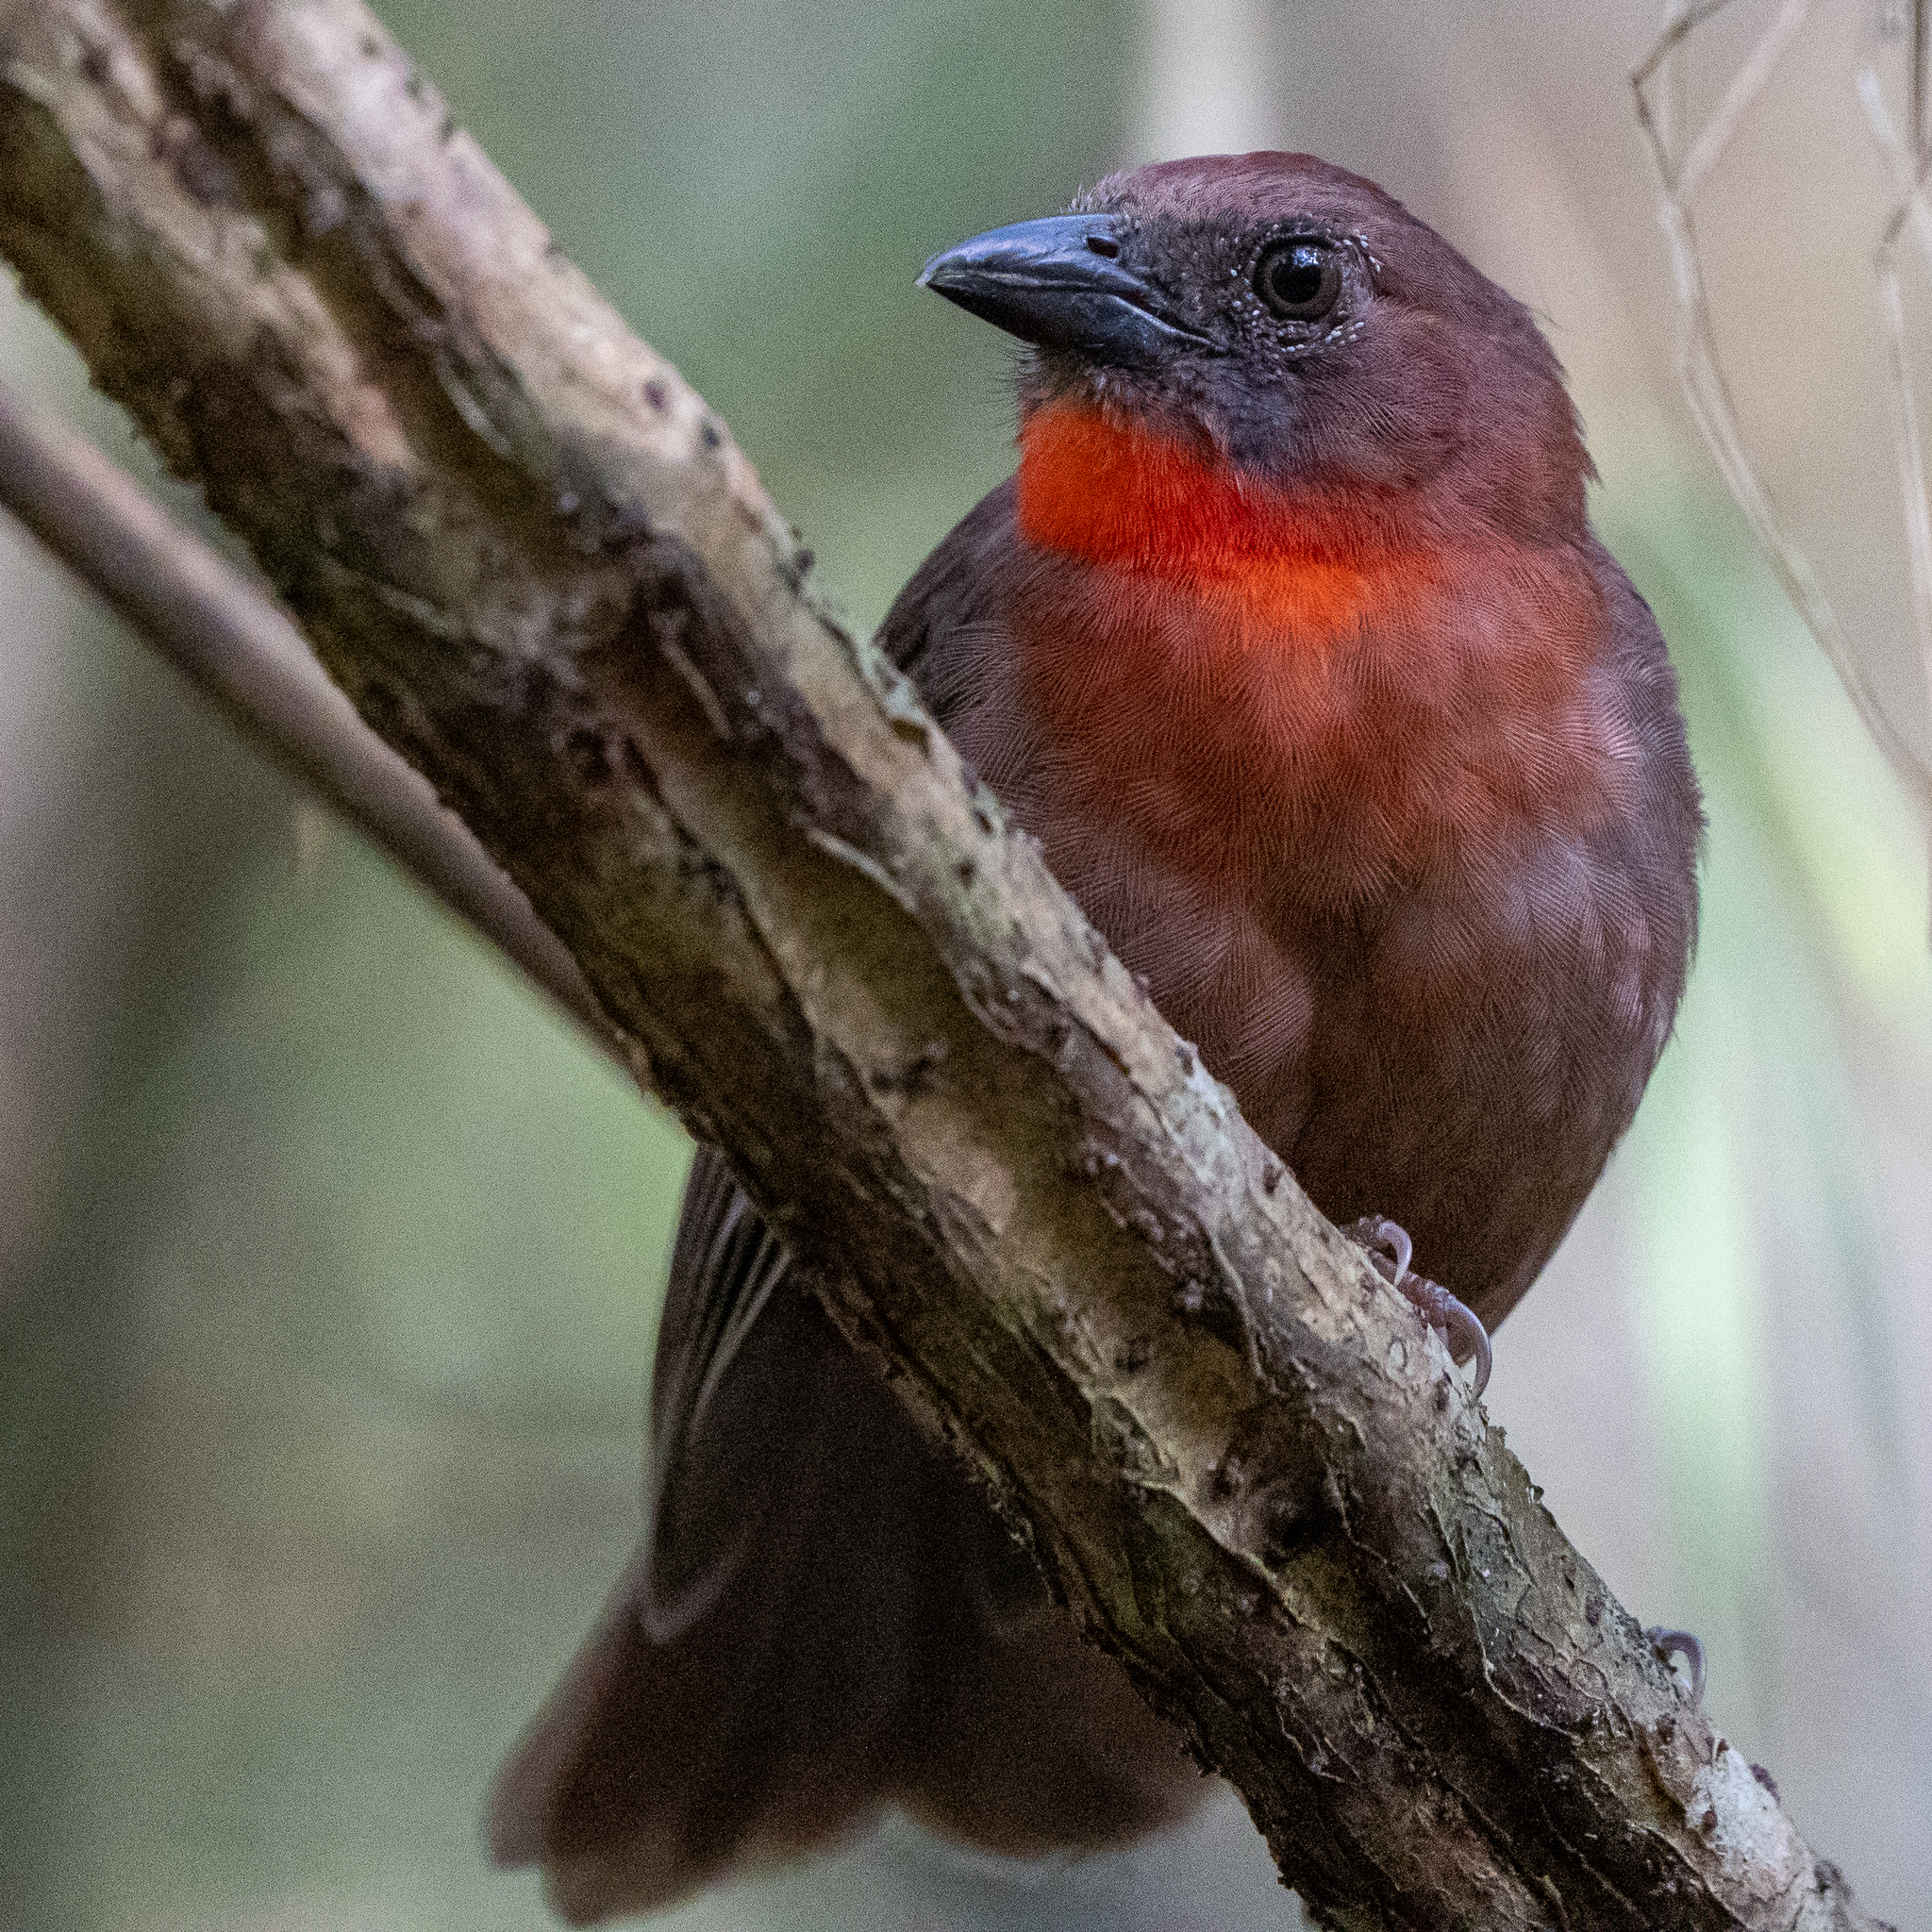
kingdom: Animalia
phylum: Chordata
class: Aves
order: Passeriformes
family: Cardinalidae
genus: Habia
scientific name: Habia fuscicauda
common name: Red-throated ant-tanager
